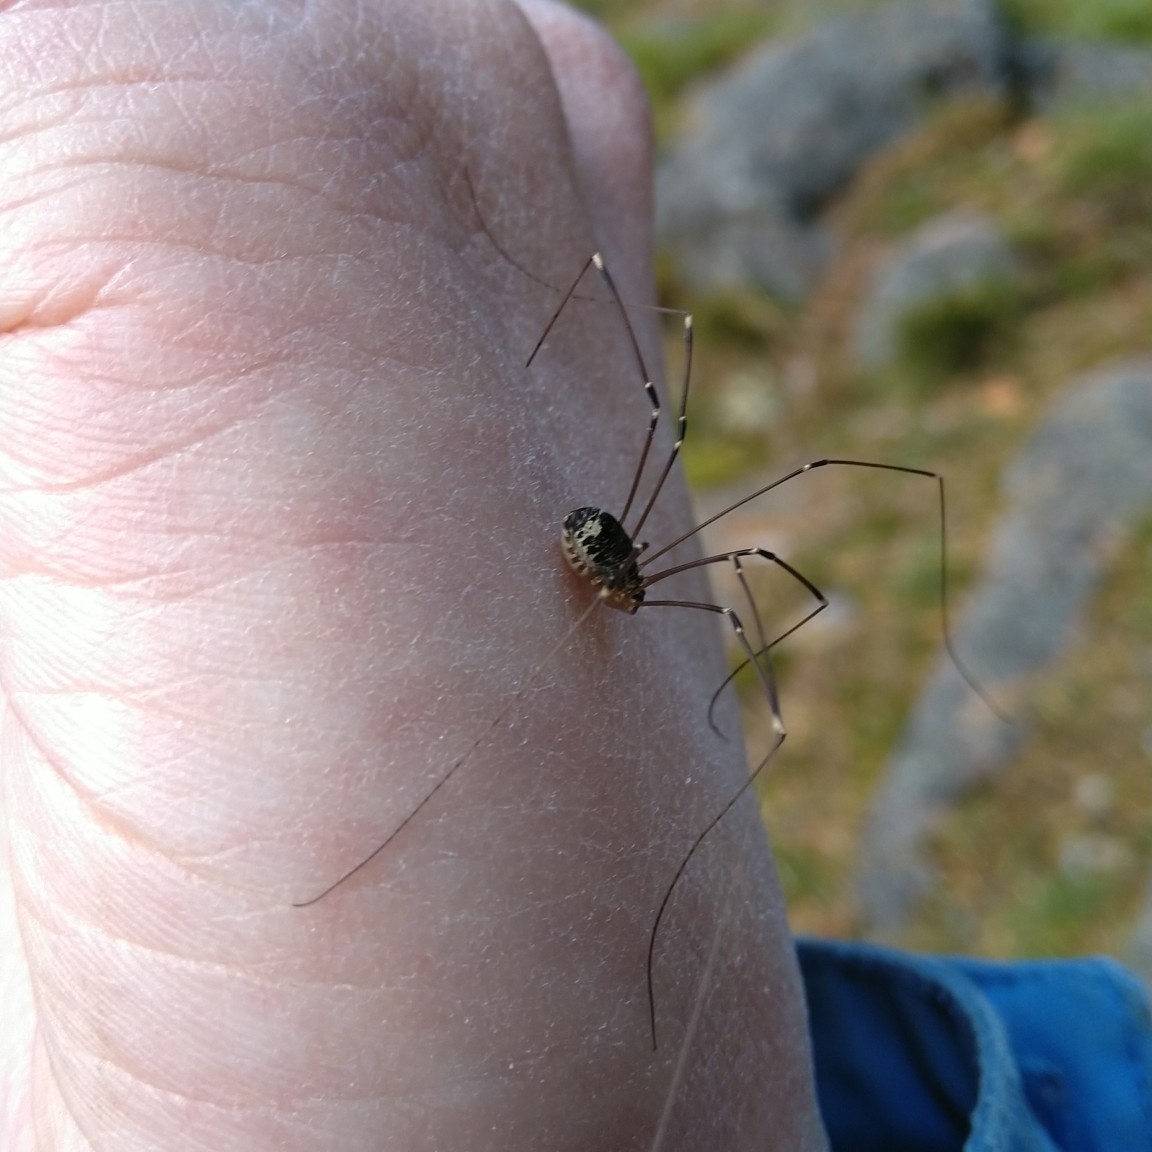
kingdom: Animalia
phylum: Arthropoda
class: Arachnida
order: Opiliones
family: Sclerosomatidae
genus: Leiobunum
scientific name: Leiobunum gracile
